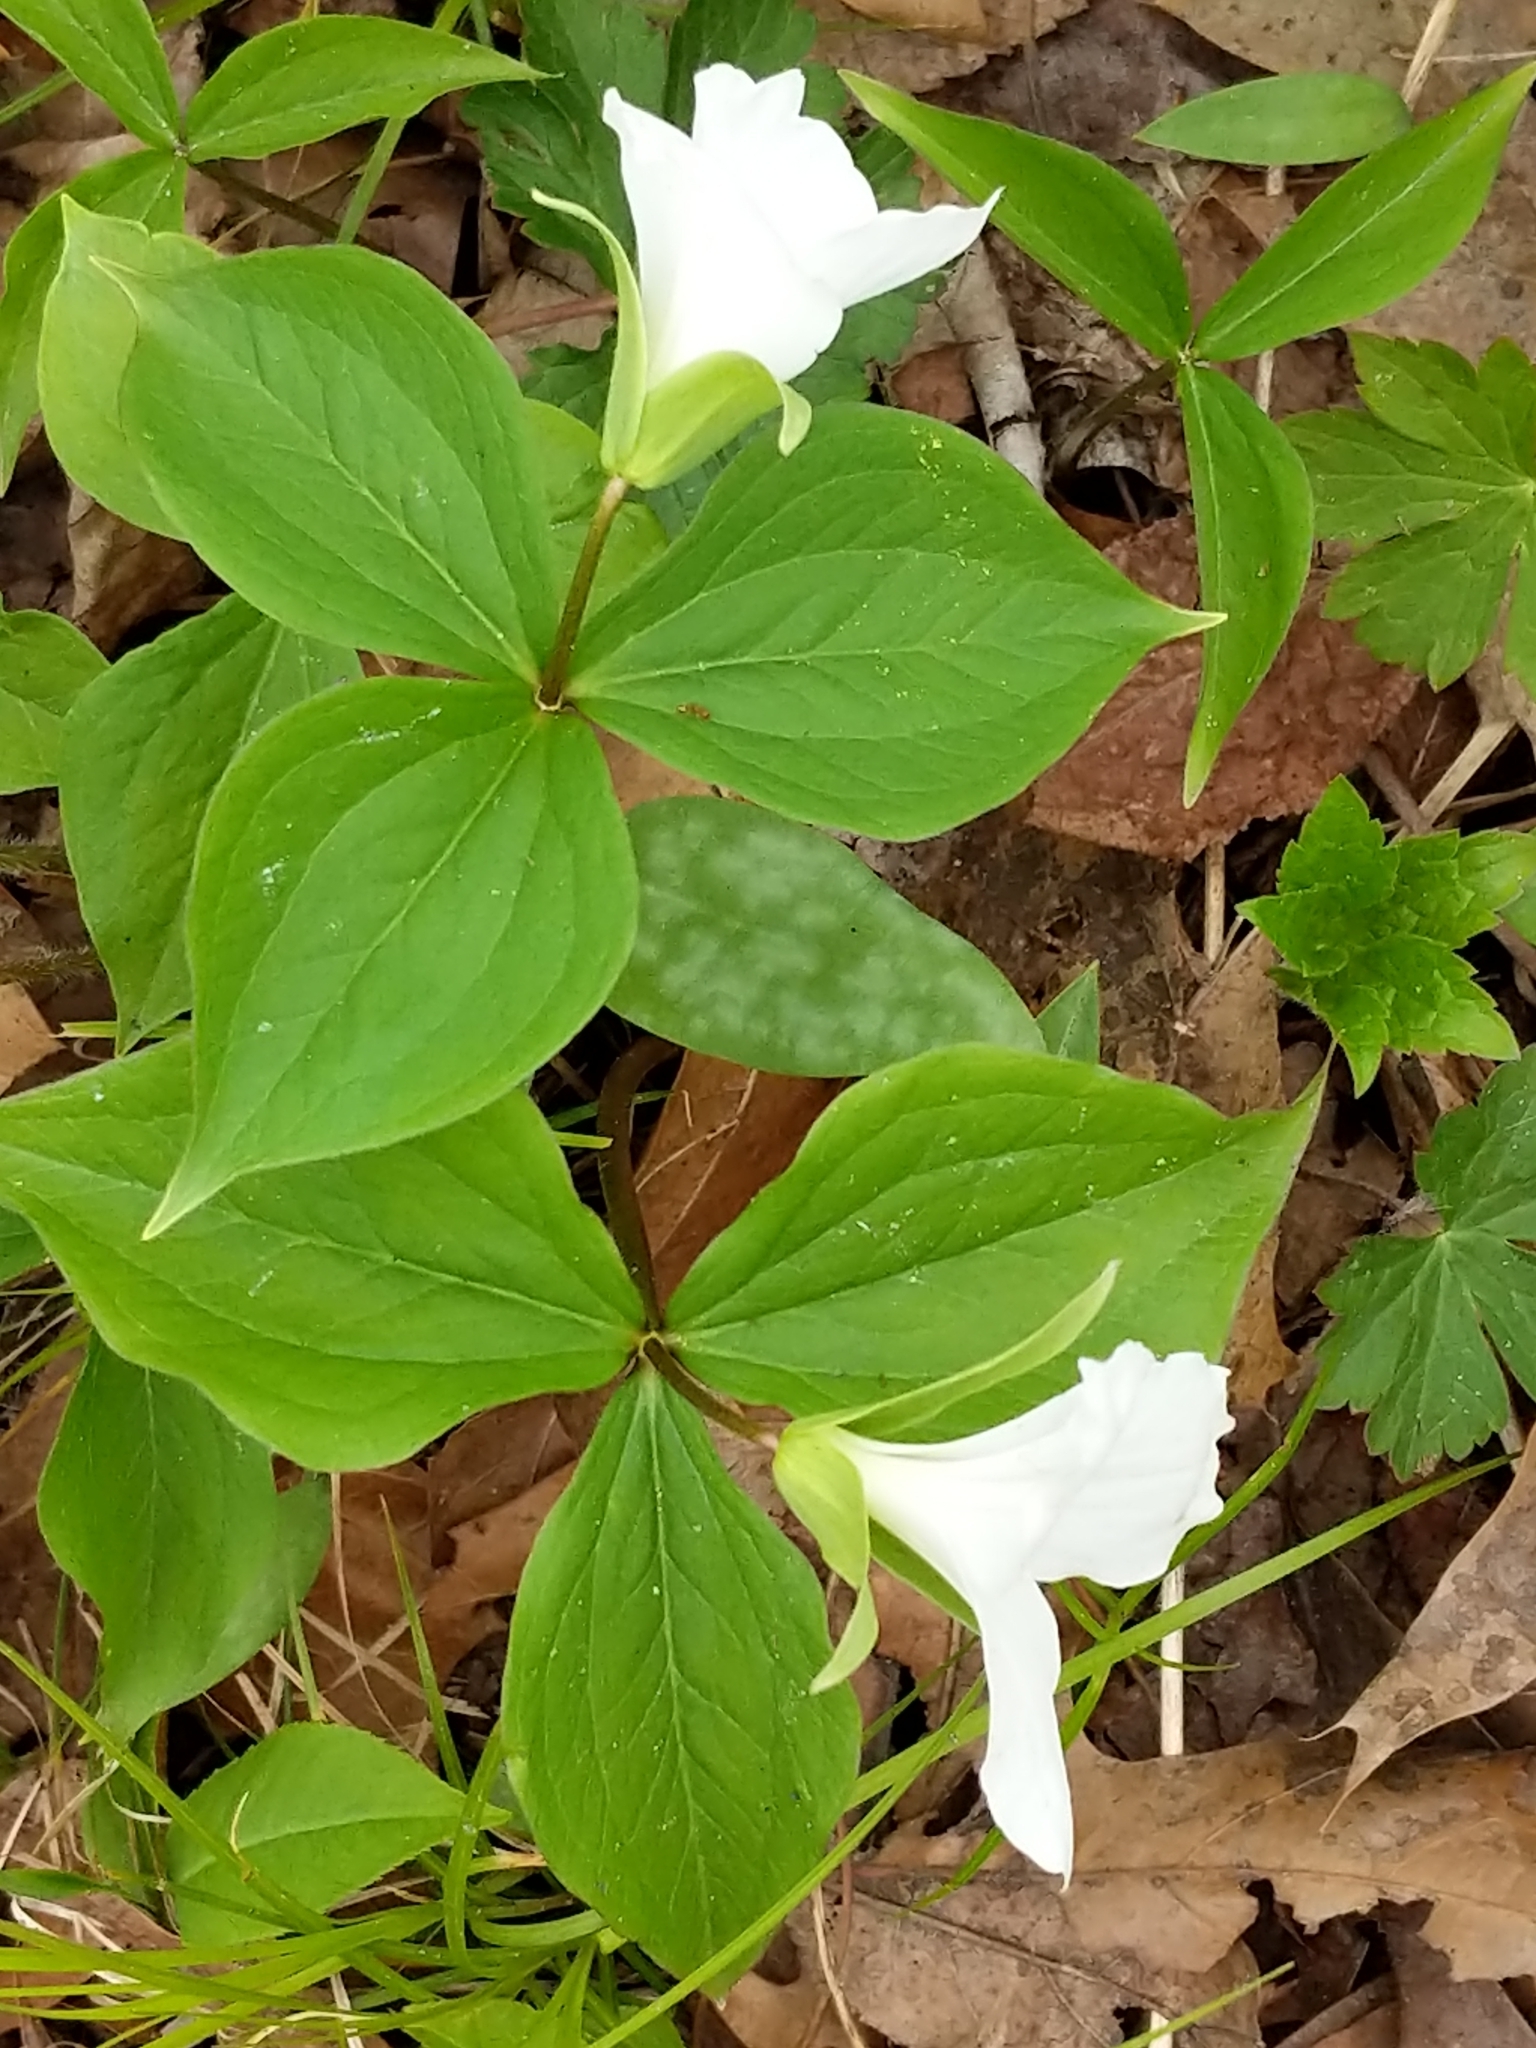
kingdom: Plantae
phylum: Tracheophyta
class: Liliopsida
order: Liliales
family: Melanthiaceae
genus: Trillium
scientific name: Trillium grandiflorum
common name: Great white trillium
